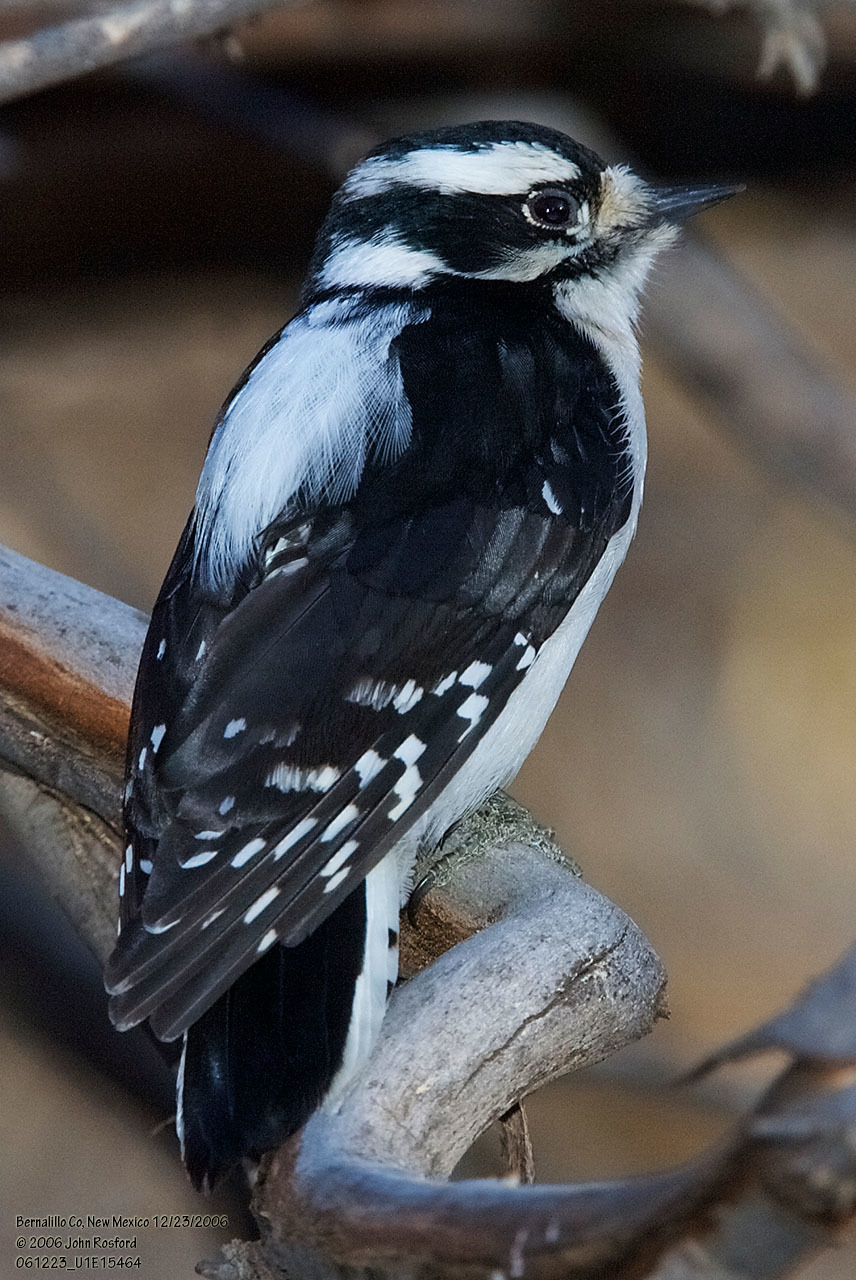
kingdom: Animalia
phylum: Chordata
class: Aves
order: Piciformes
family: Picidae
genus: Dryobates
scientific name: Dryobates pubescens
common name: Downy woodpecker
